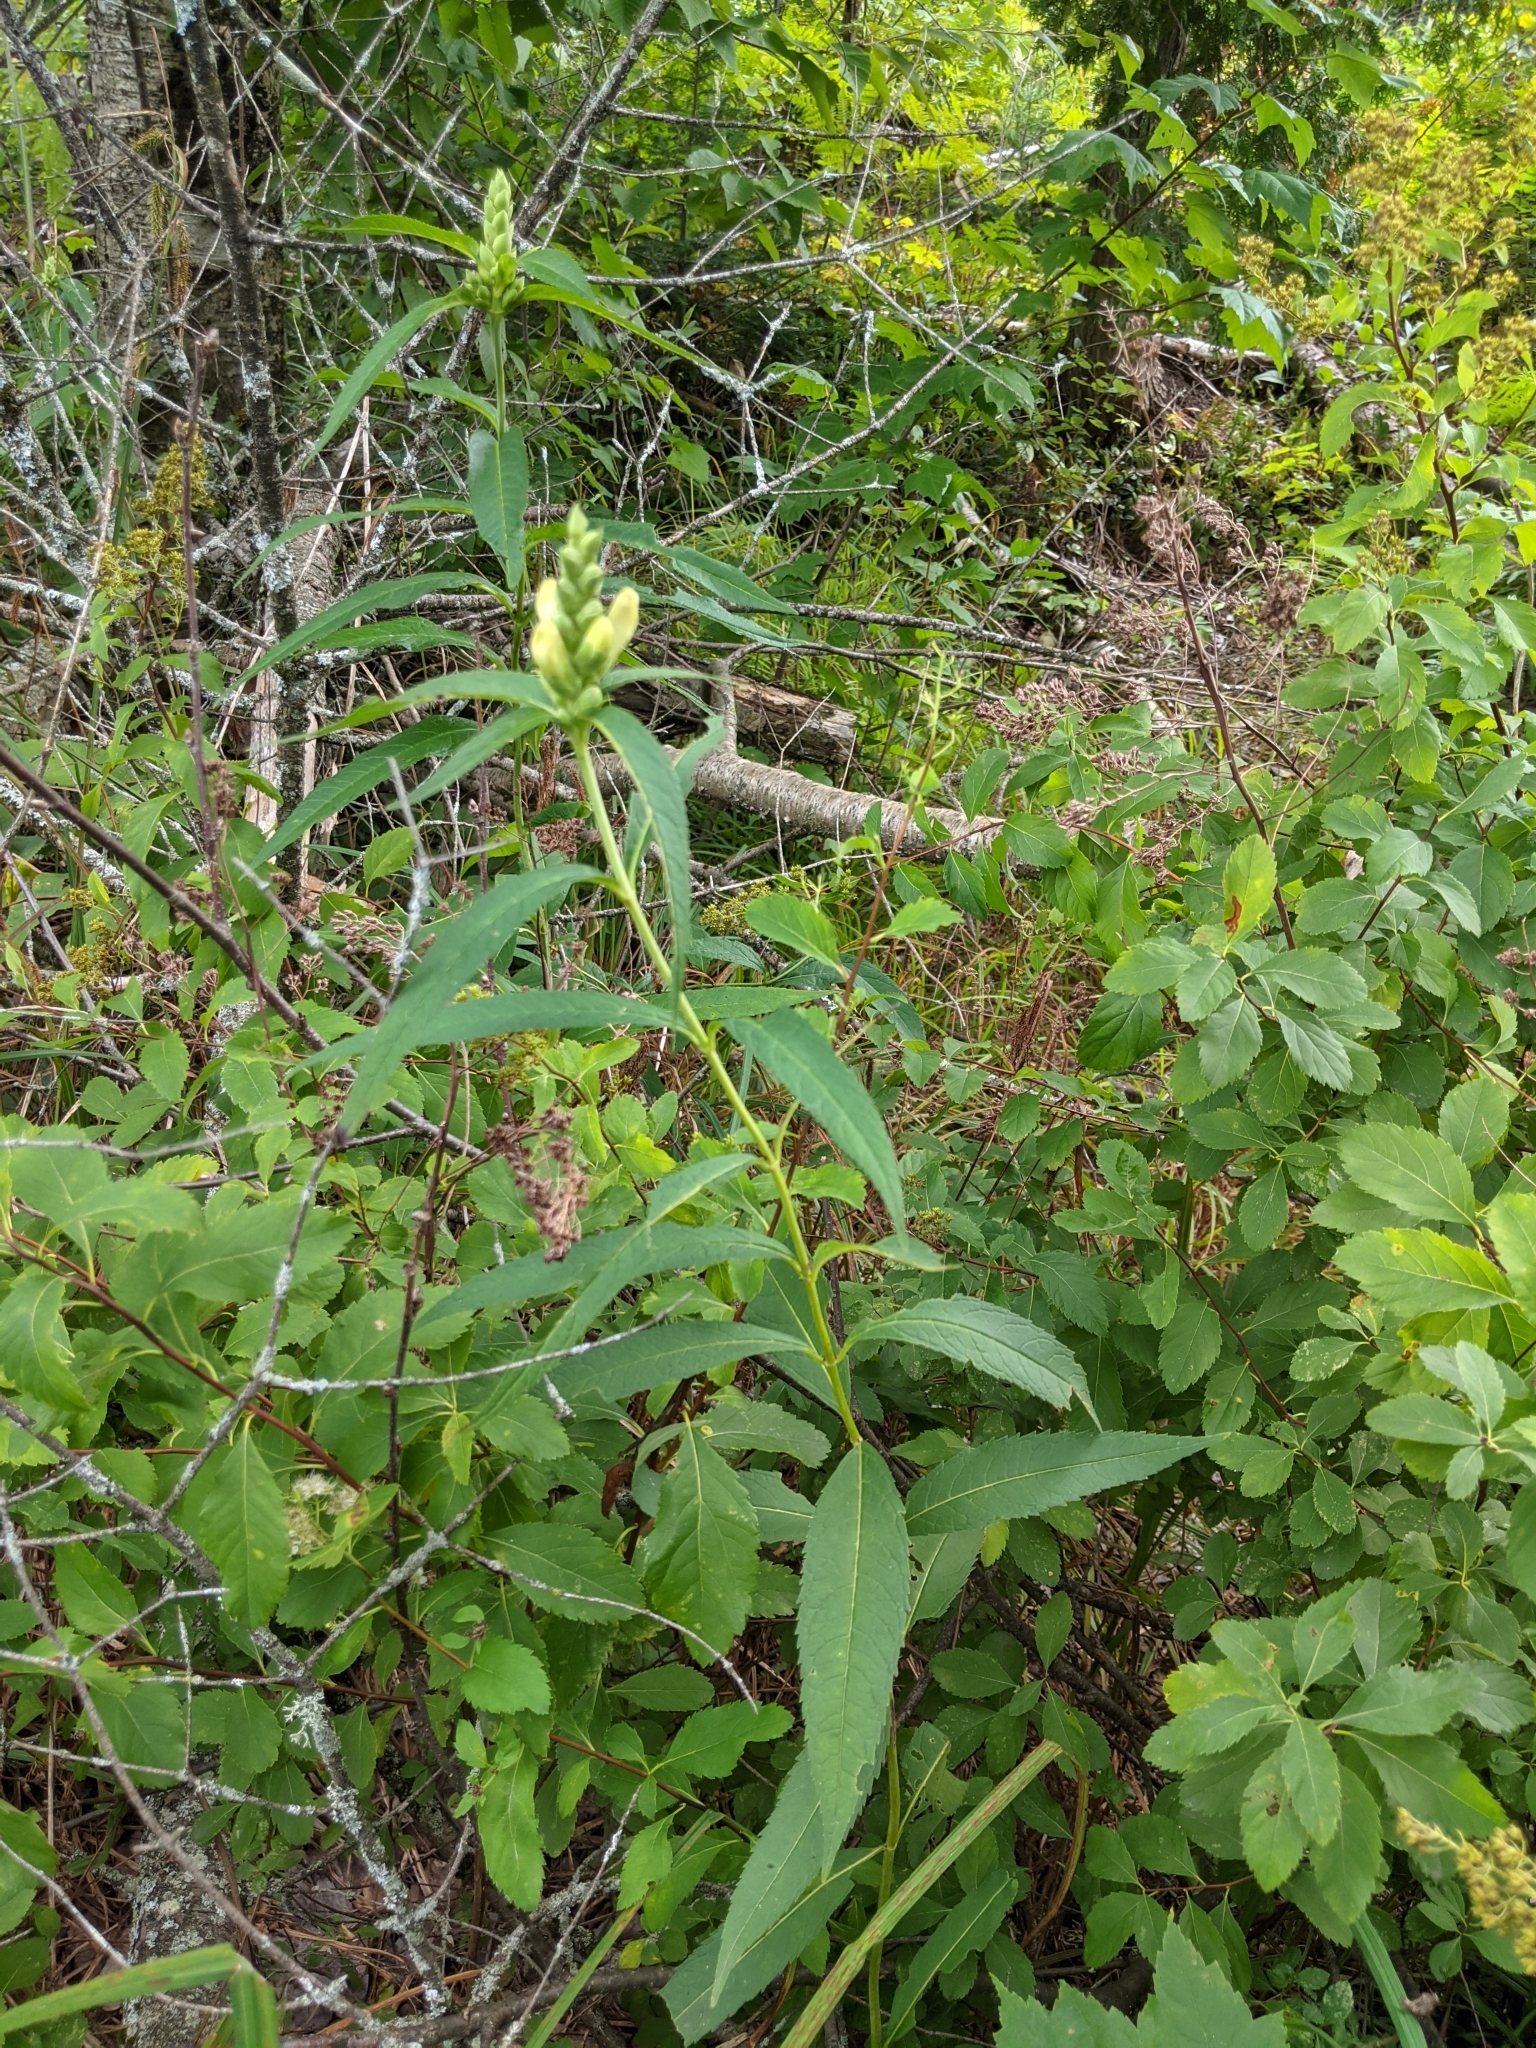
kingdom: Plantae
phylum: Tracheophyta
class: Magnoliopsida
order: Lamiales
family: Plantaginaceae
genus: Chelone
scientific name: Chelone glabra
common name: Snakehead
